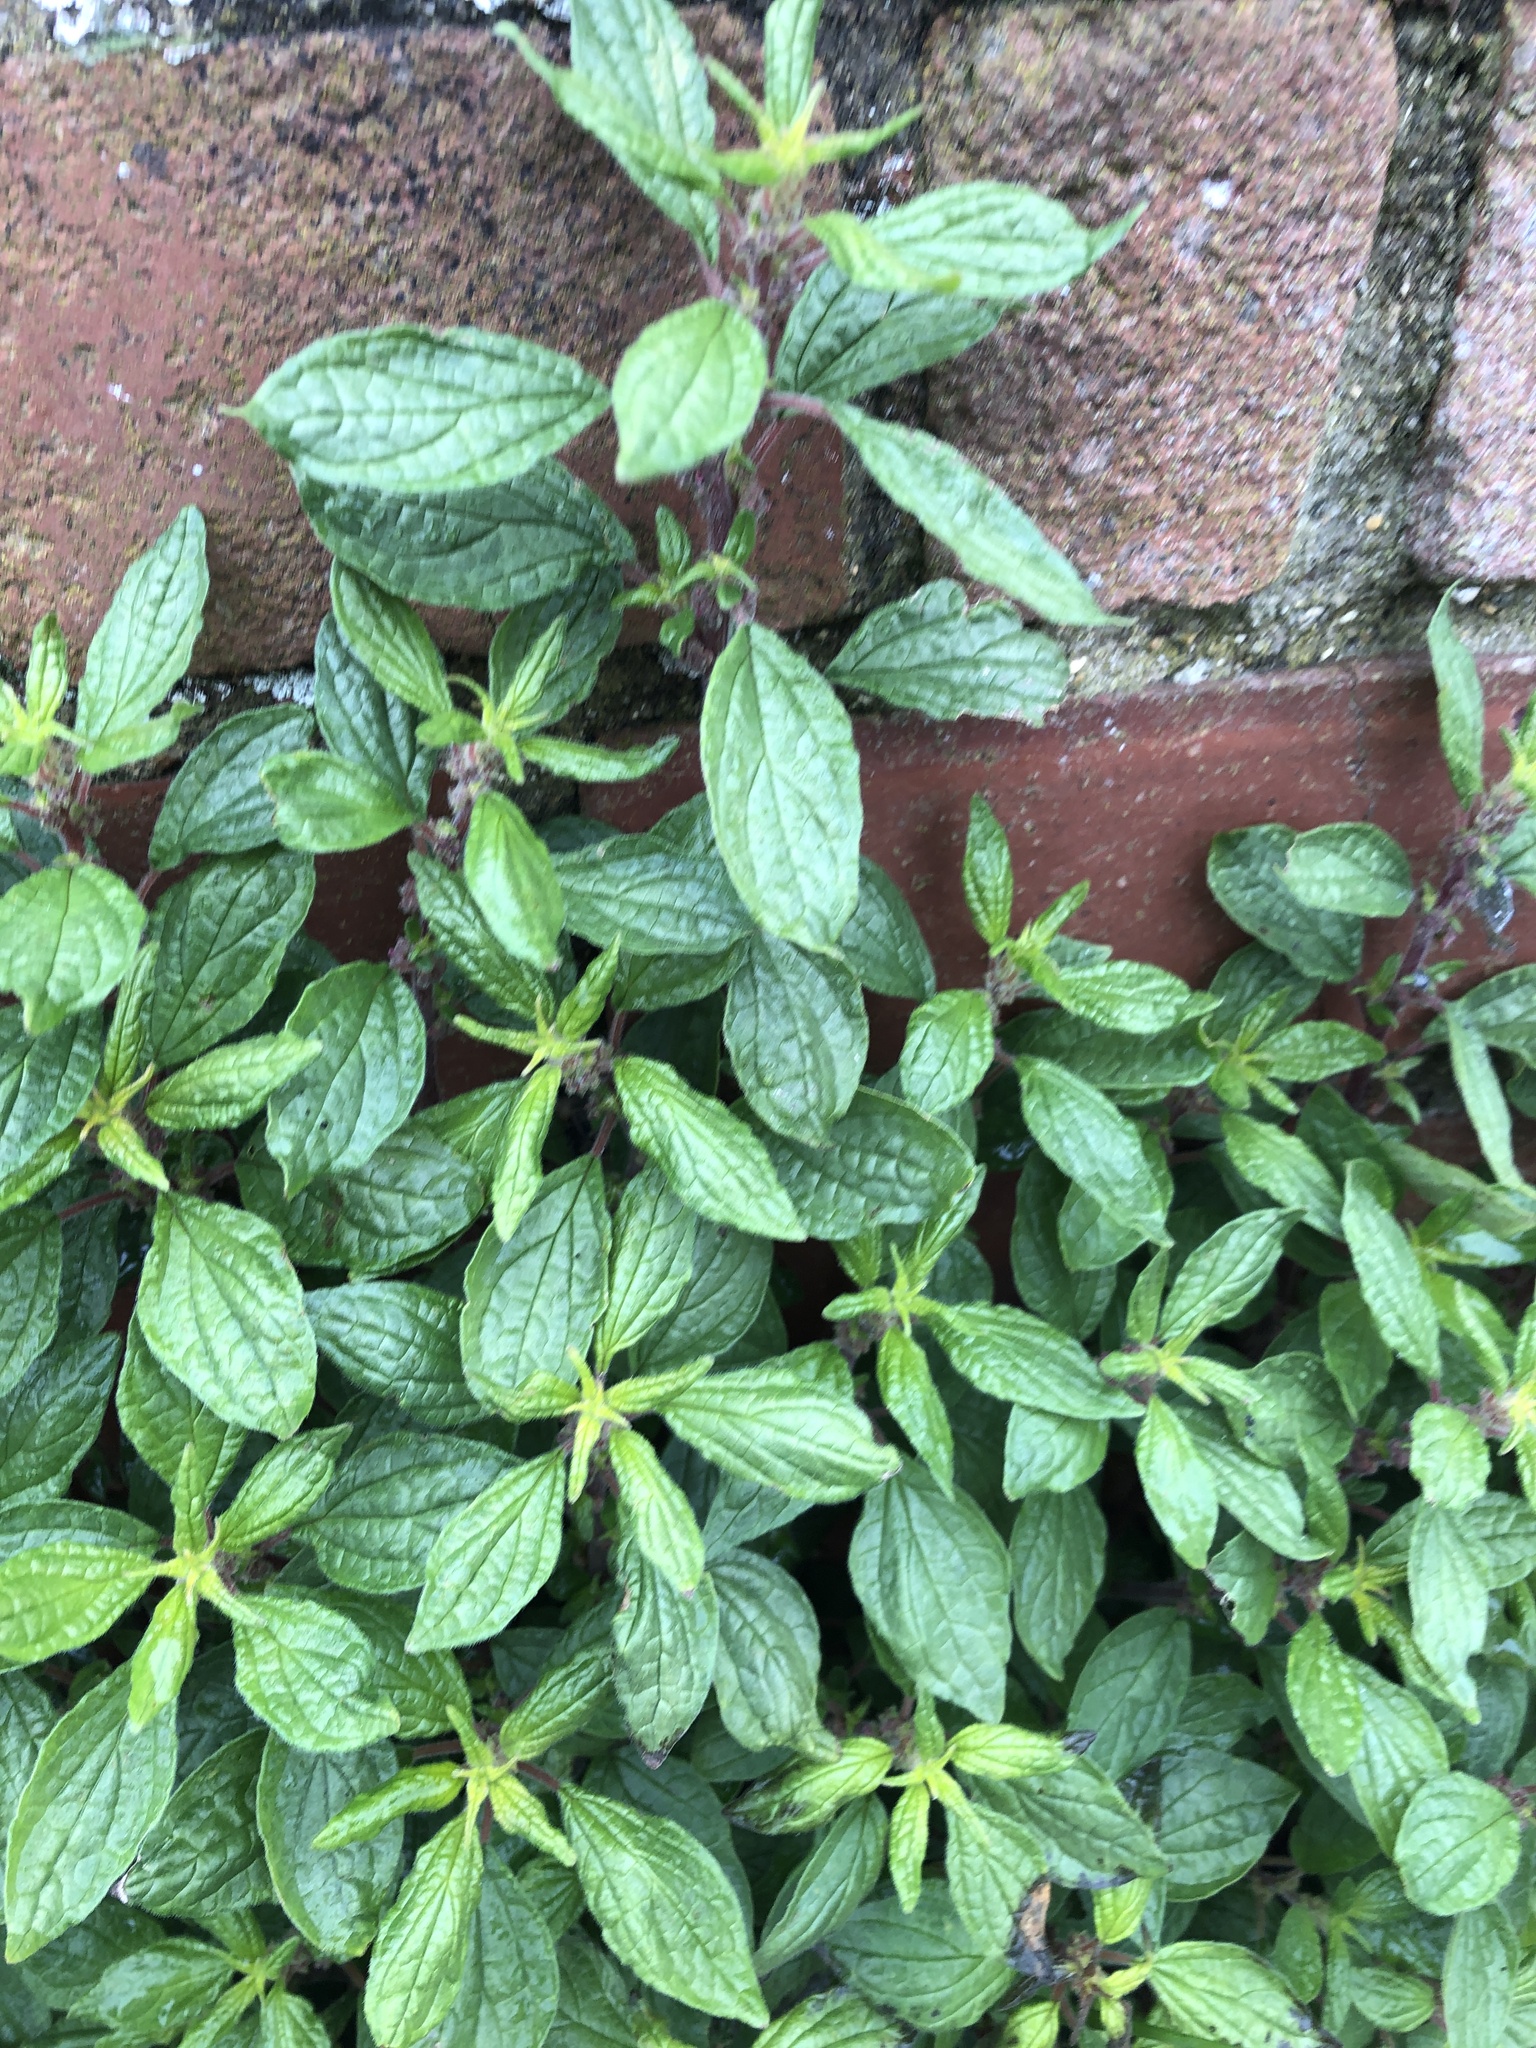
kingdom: Plantae
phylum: Tracheophyta
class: Magnoliopsida
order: Rosales
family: Urticaceae
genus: Parietaria
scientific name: Parietaria judaica
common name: Pellitory-of-the-wall
